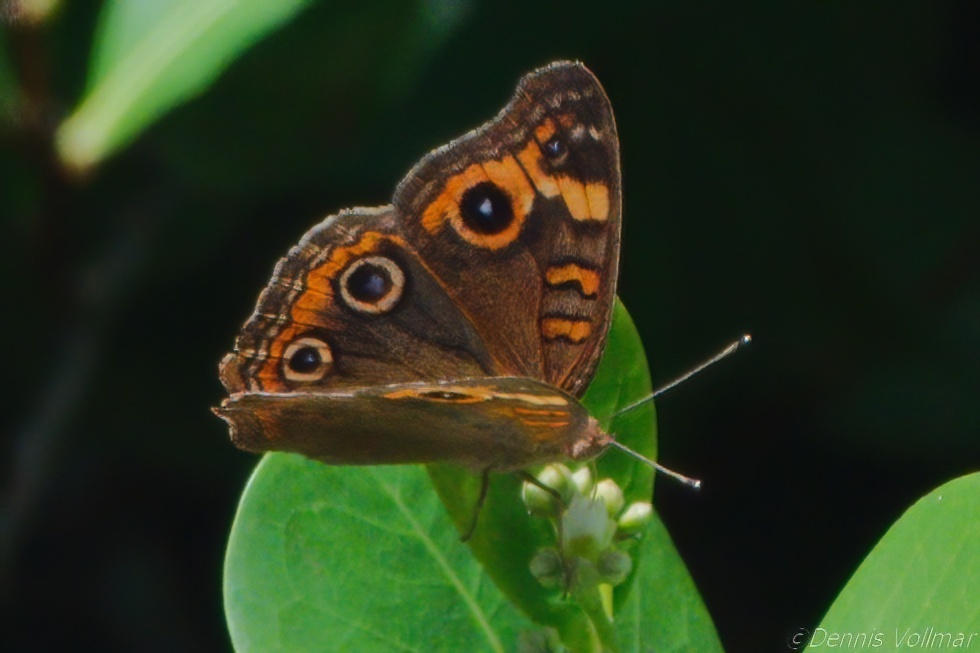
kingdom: Animalia
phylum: Arthropoda
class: Insecta
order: Lepidoptera
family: Nymphalidae
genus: Junonia
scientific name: Junonia neildi
